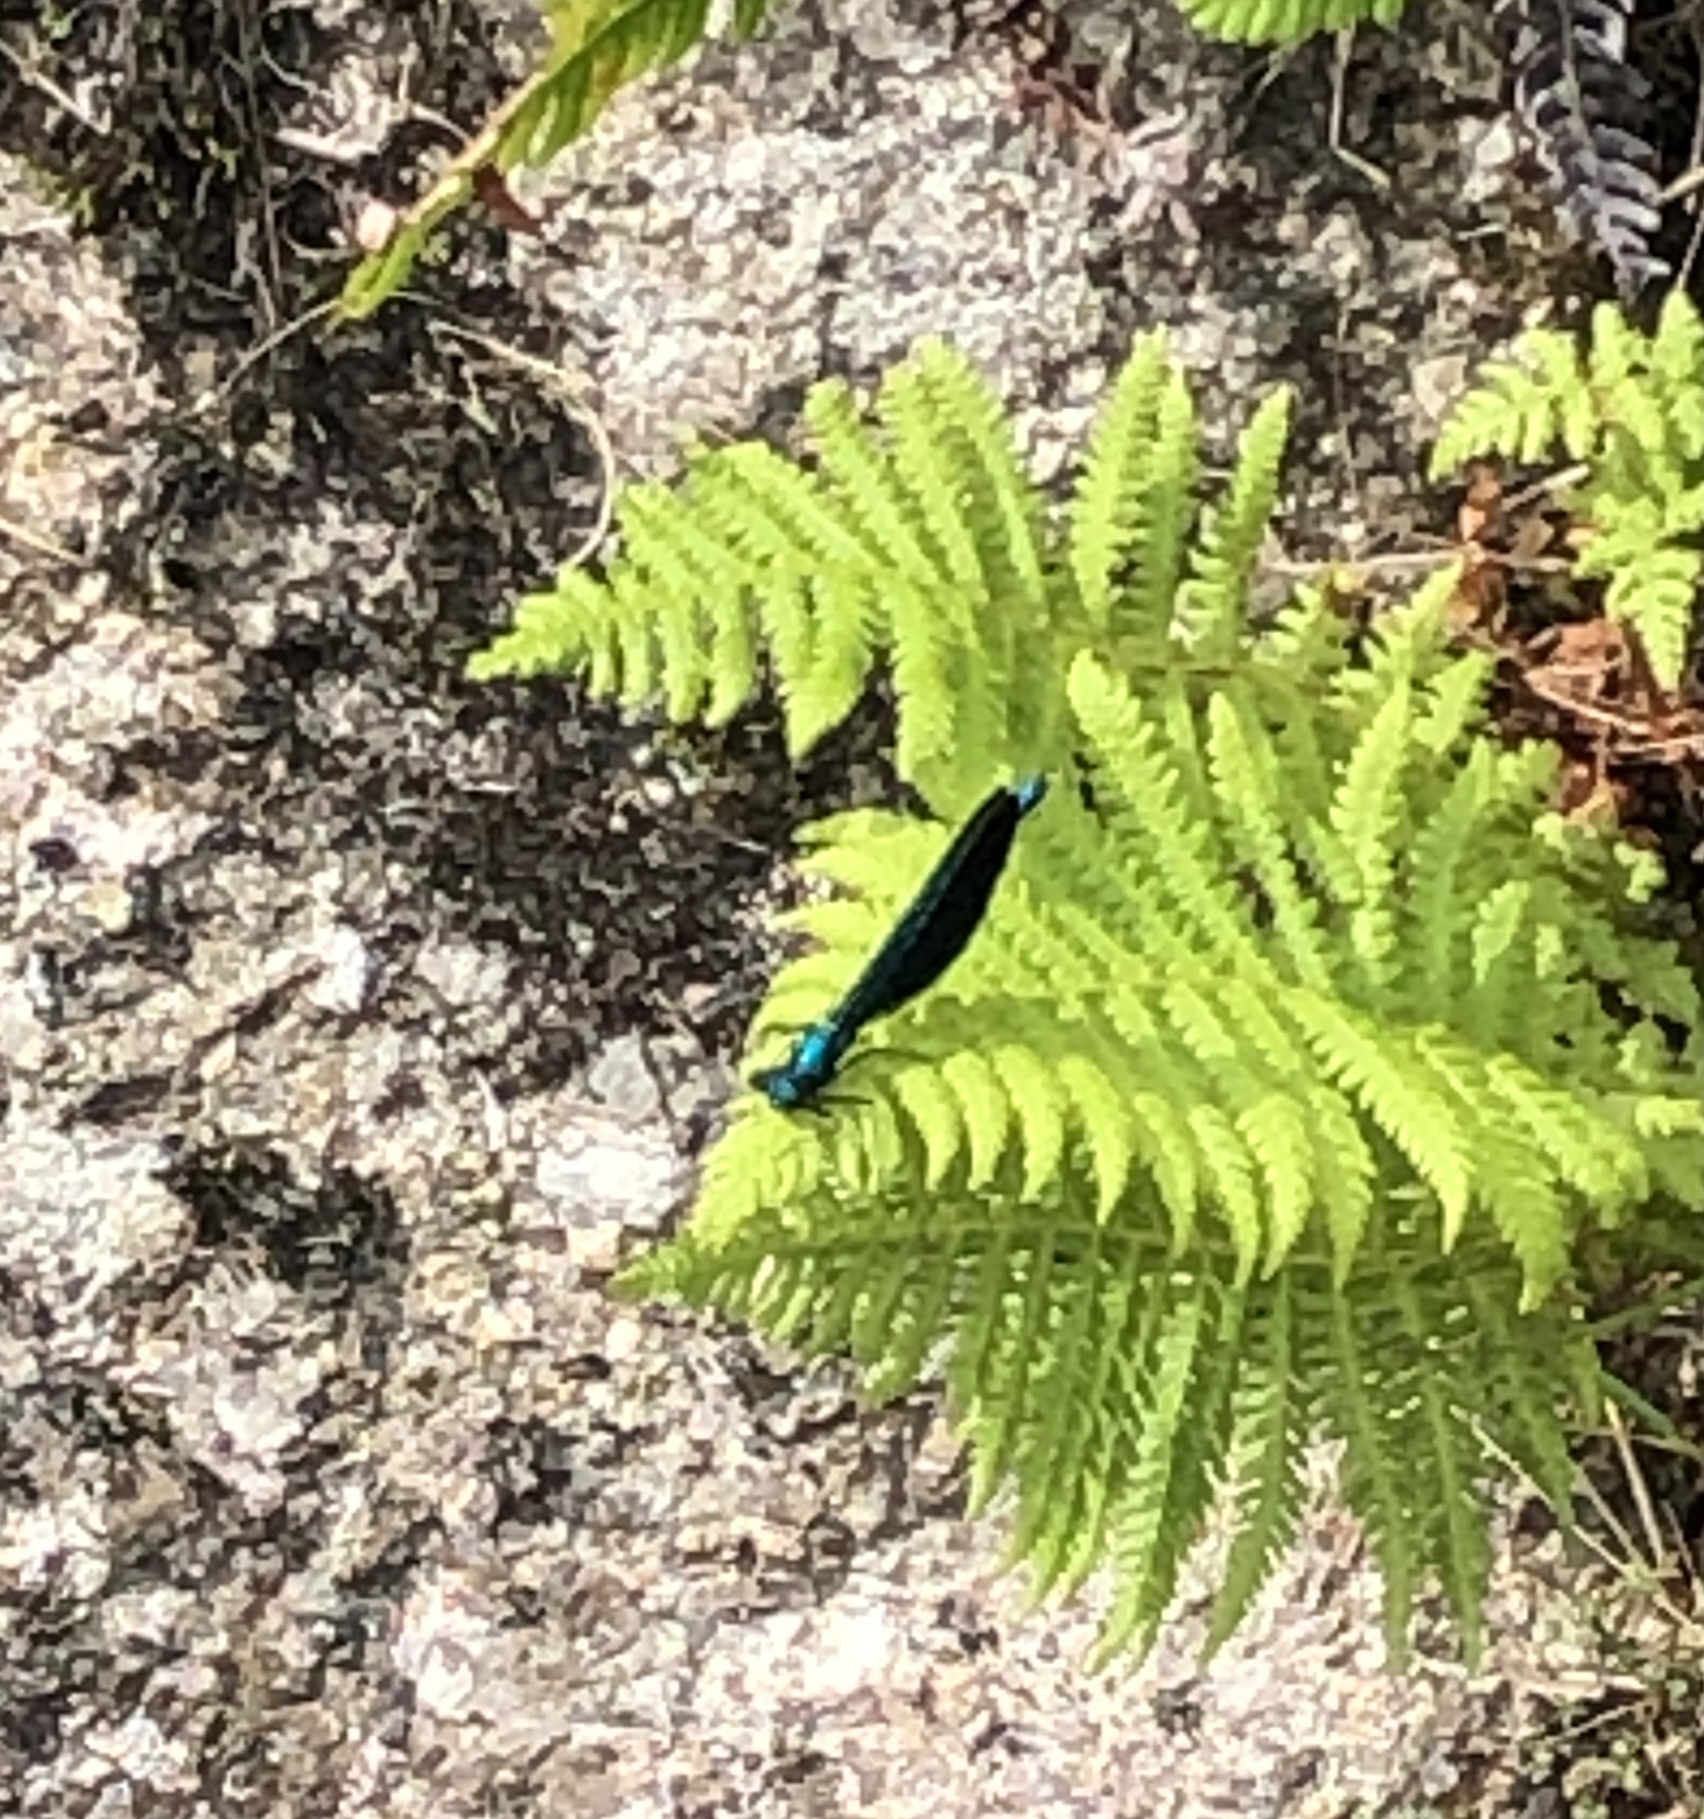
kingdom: Animalia
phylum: Arthropoda
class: Insecta
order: Odonata
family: Calopterygidae
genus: Calopteryx
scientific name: Calopteryx virgo
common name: Beautiful demoiselle
